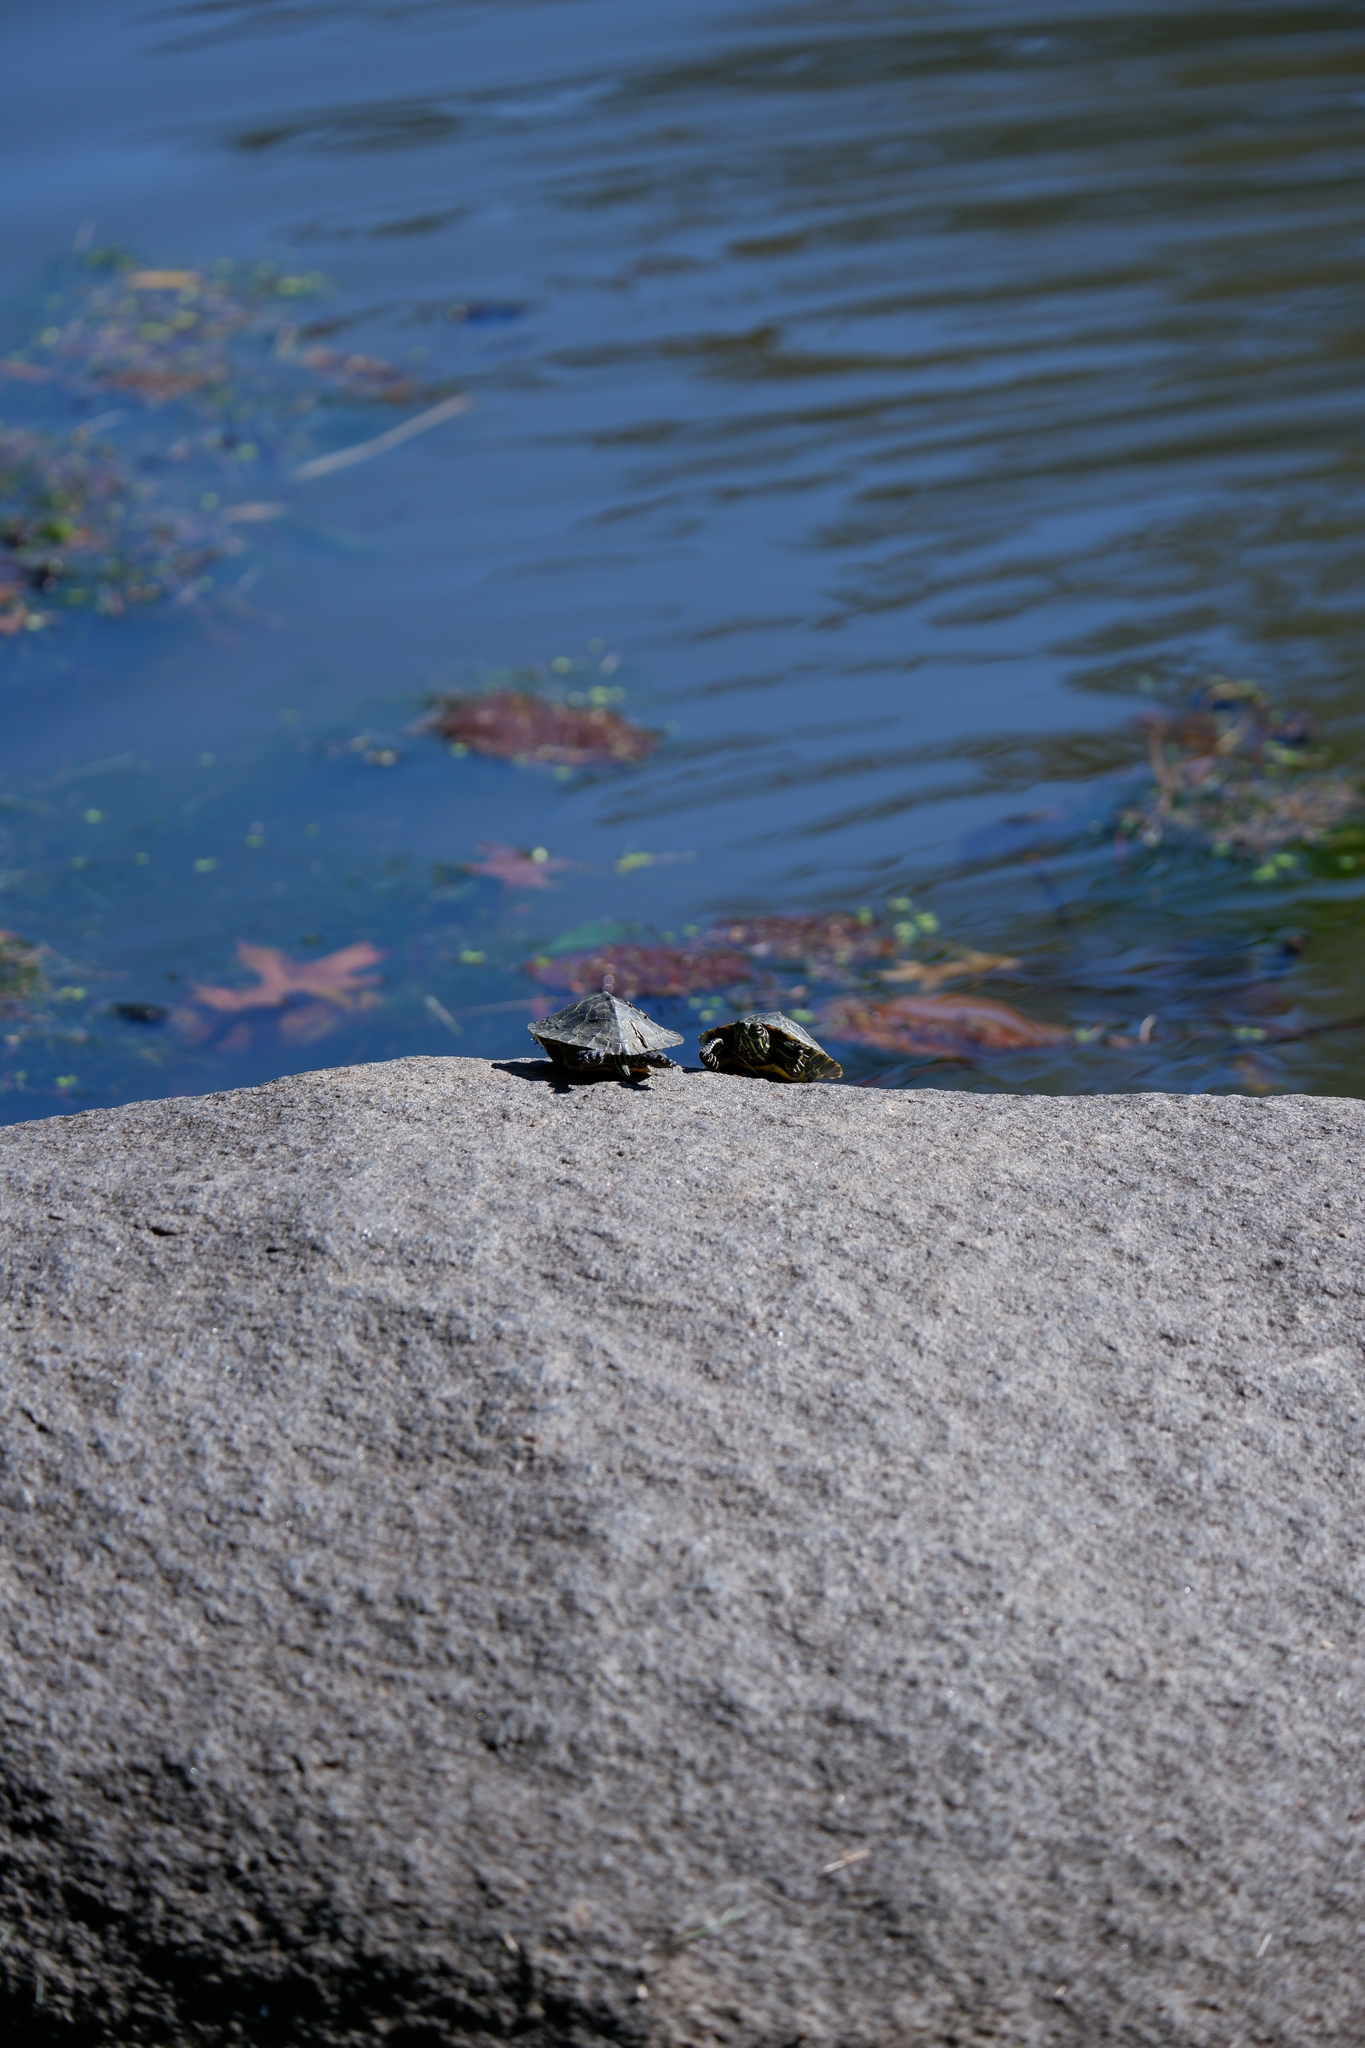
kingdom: Animalia
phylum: Chordata
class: Testudines
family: Emydidae
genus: Trachemys
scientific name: Trachemys scripta
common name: Slider
